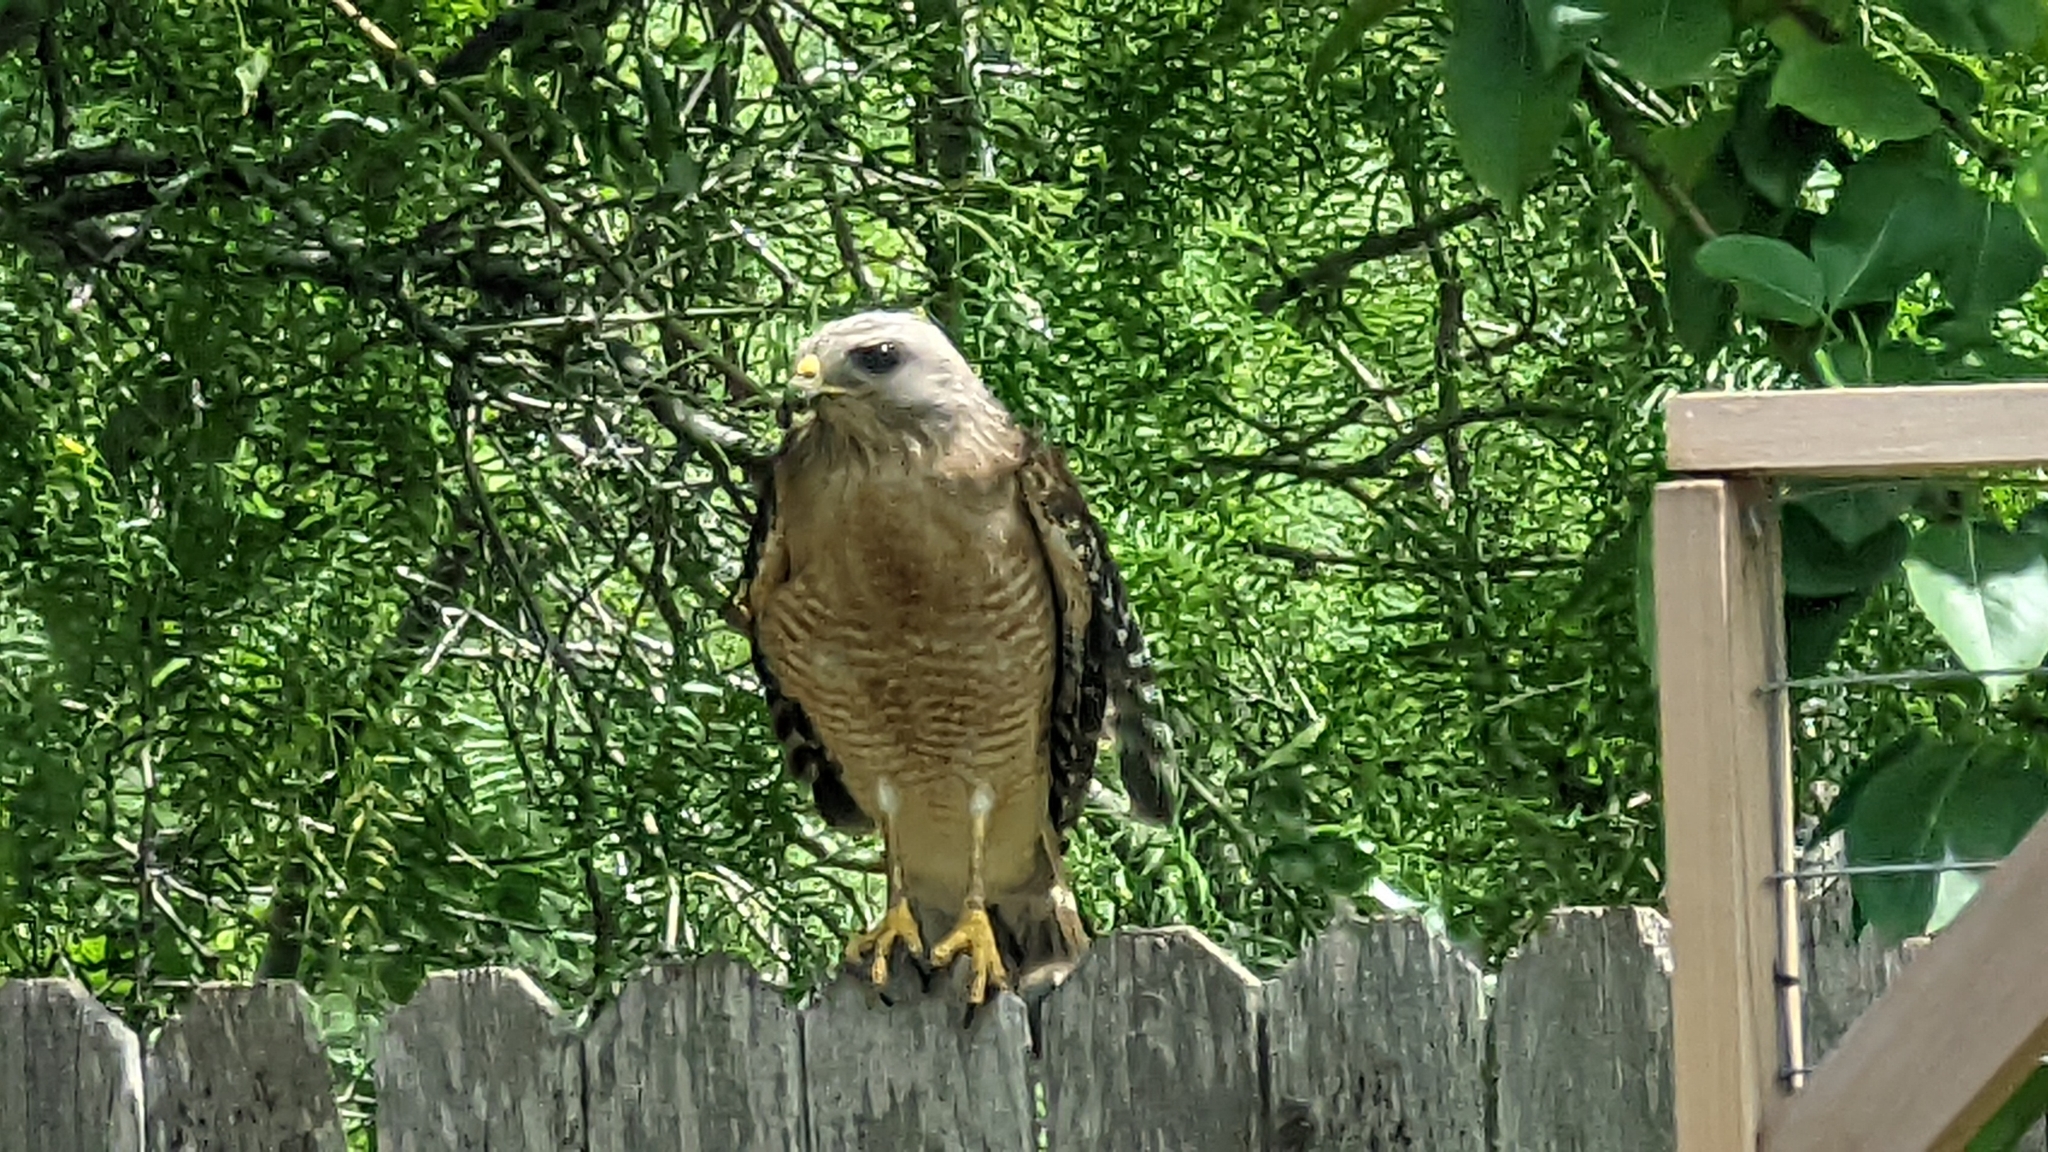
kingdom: Animalia
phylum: Chordata
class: Aves
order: Accipitriformes
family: Accipitridae
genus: Buteo
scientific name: Buteo lineatus
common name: Red-shouldered hawk
